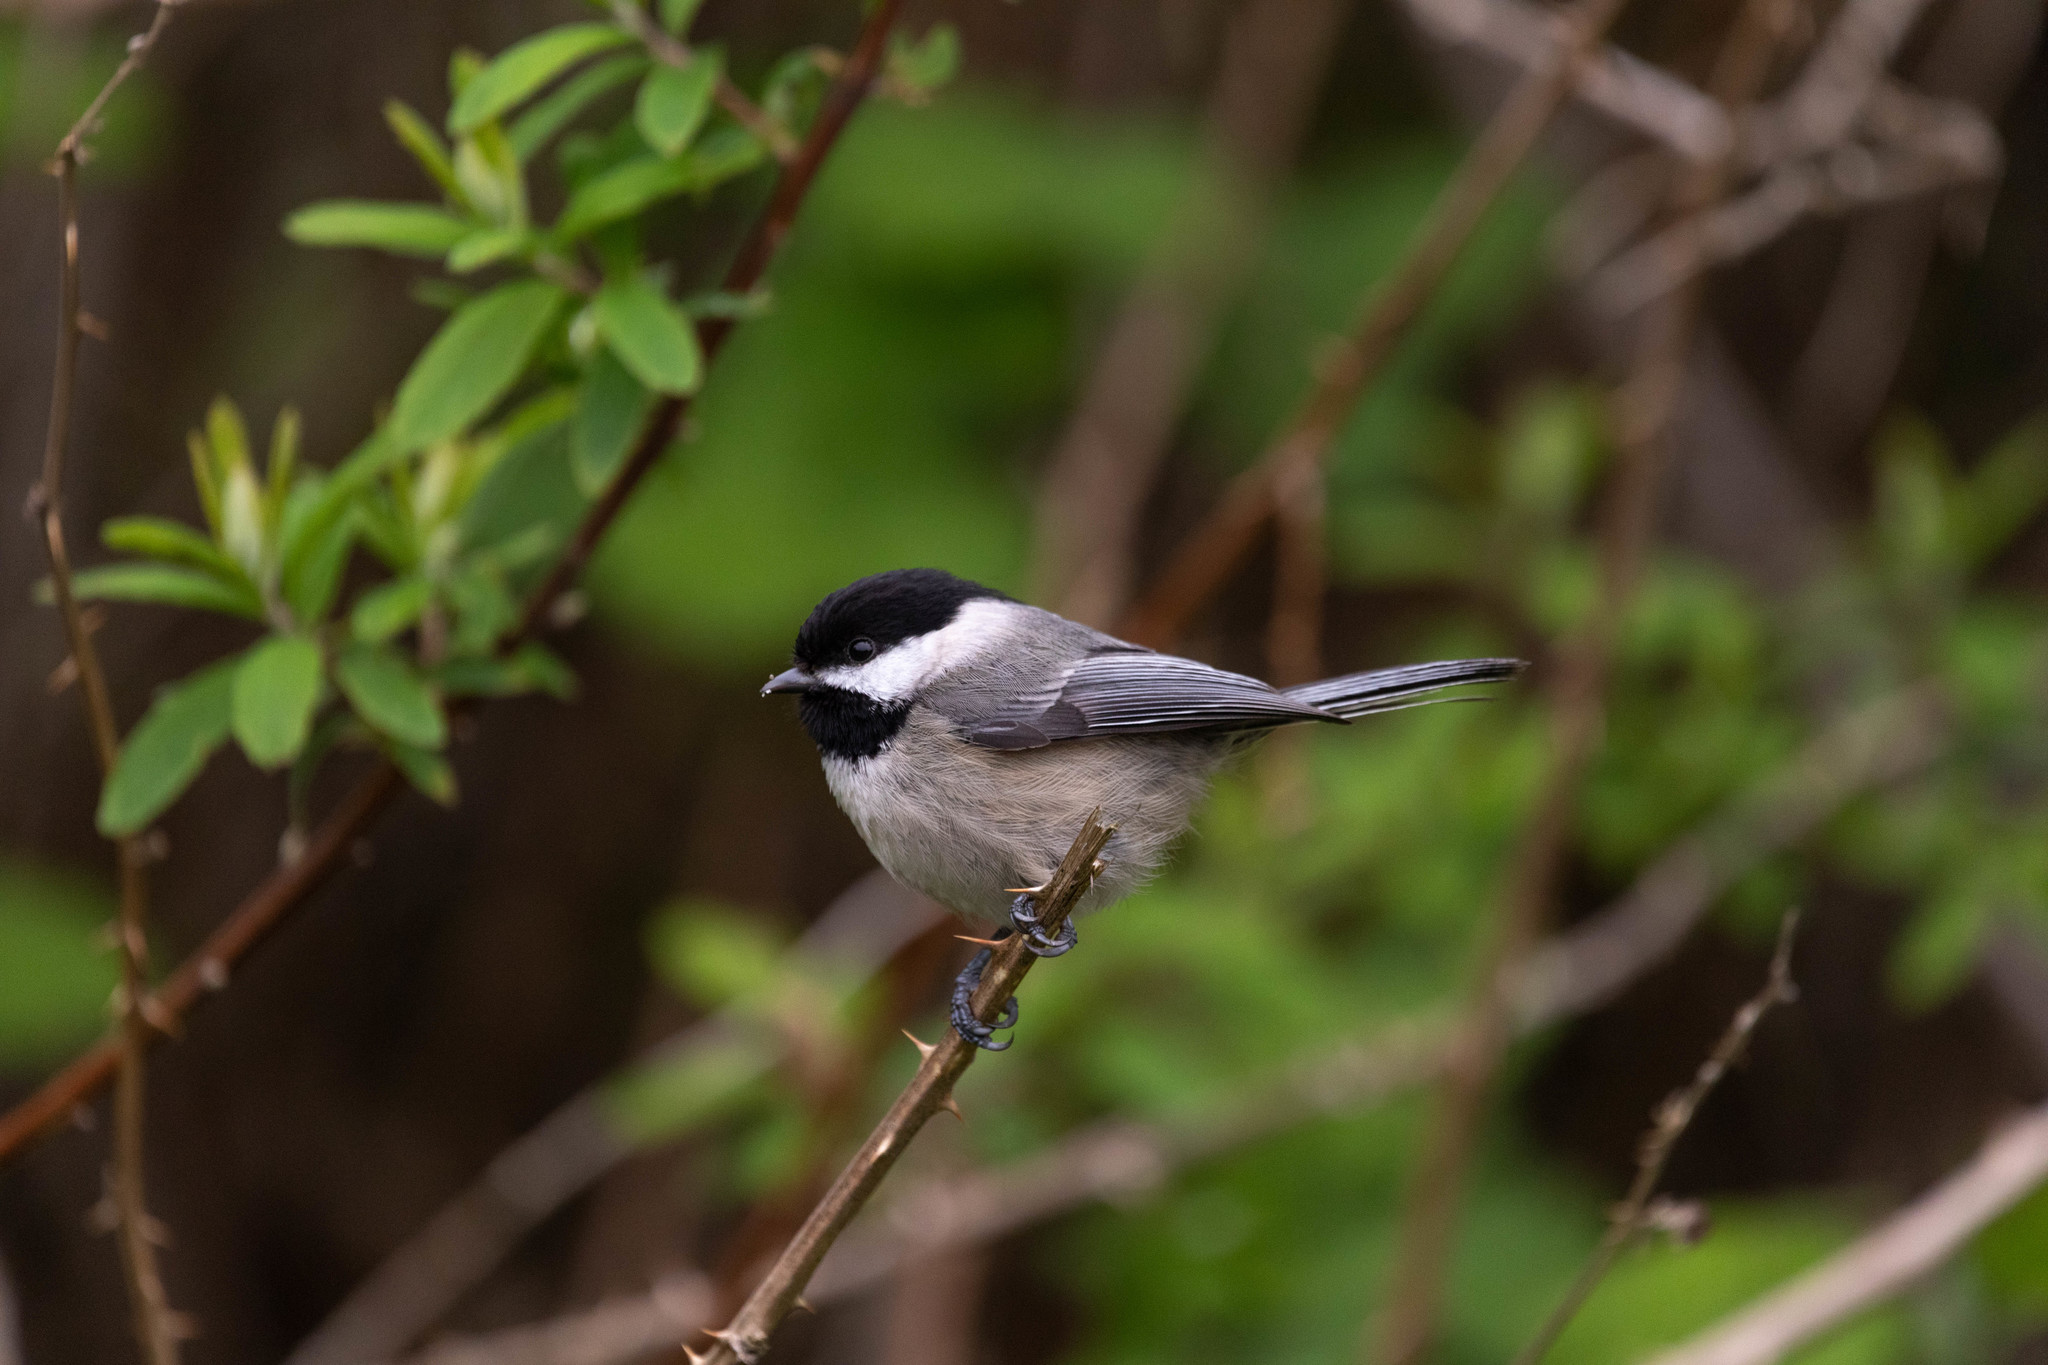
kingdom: Animalia
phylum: Chordata
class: Aves
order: Passeriformes
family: Paridae
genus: Poecile
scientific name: Poecile atricapillus
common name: Black-capped chickadee
